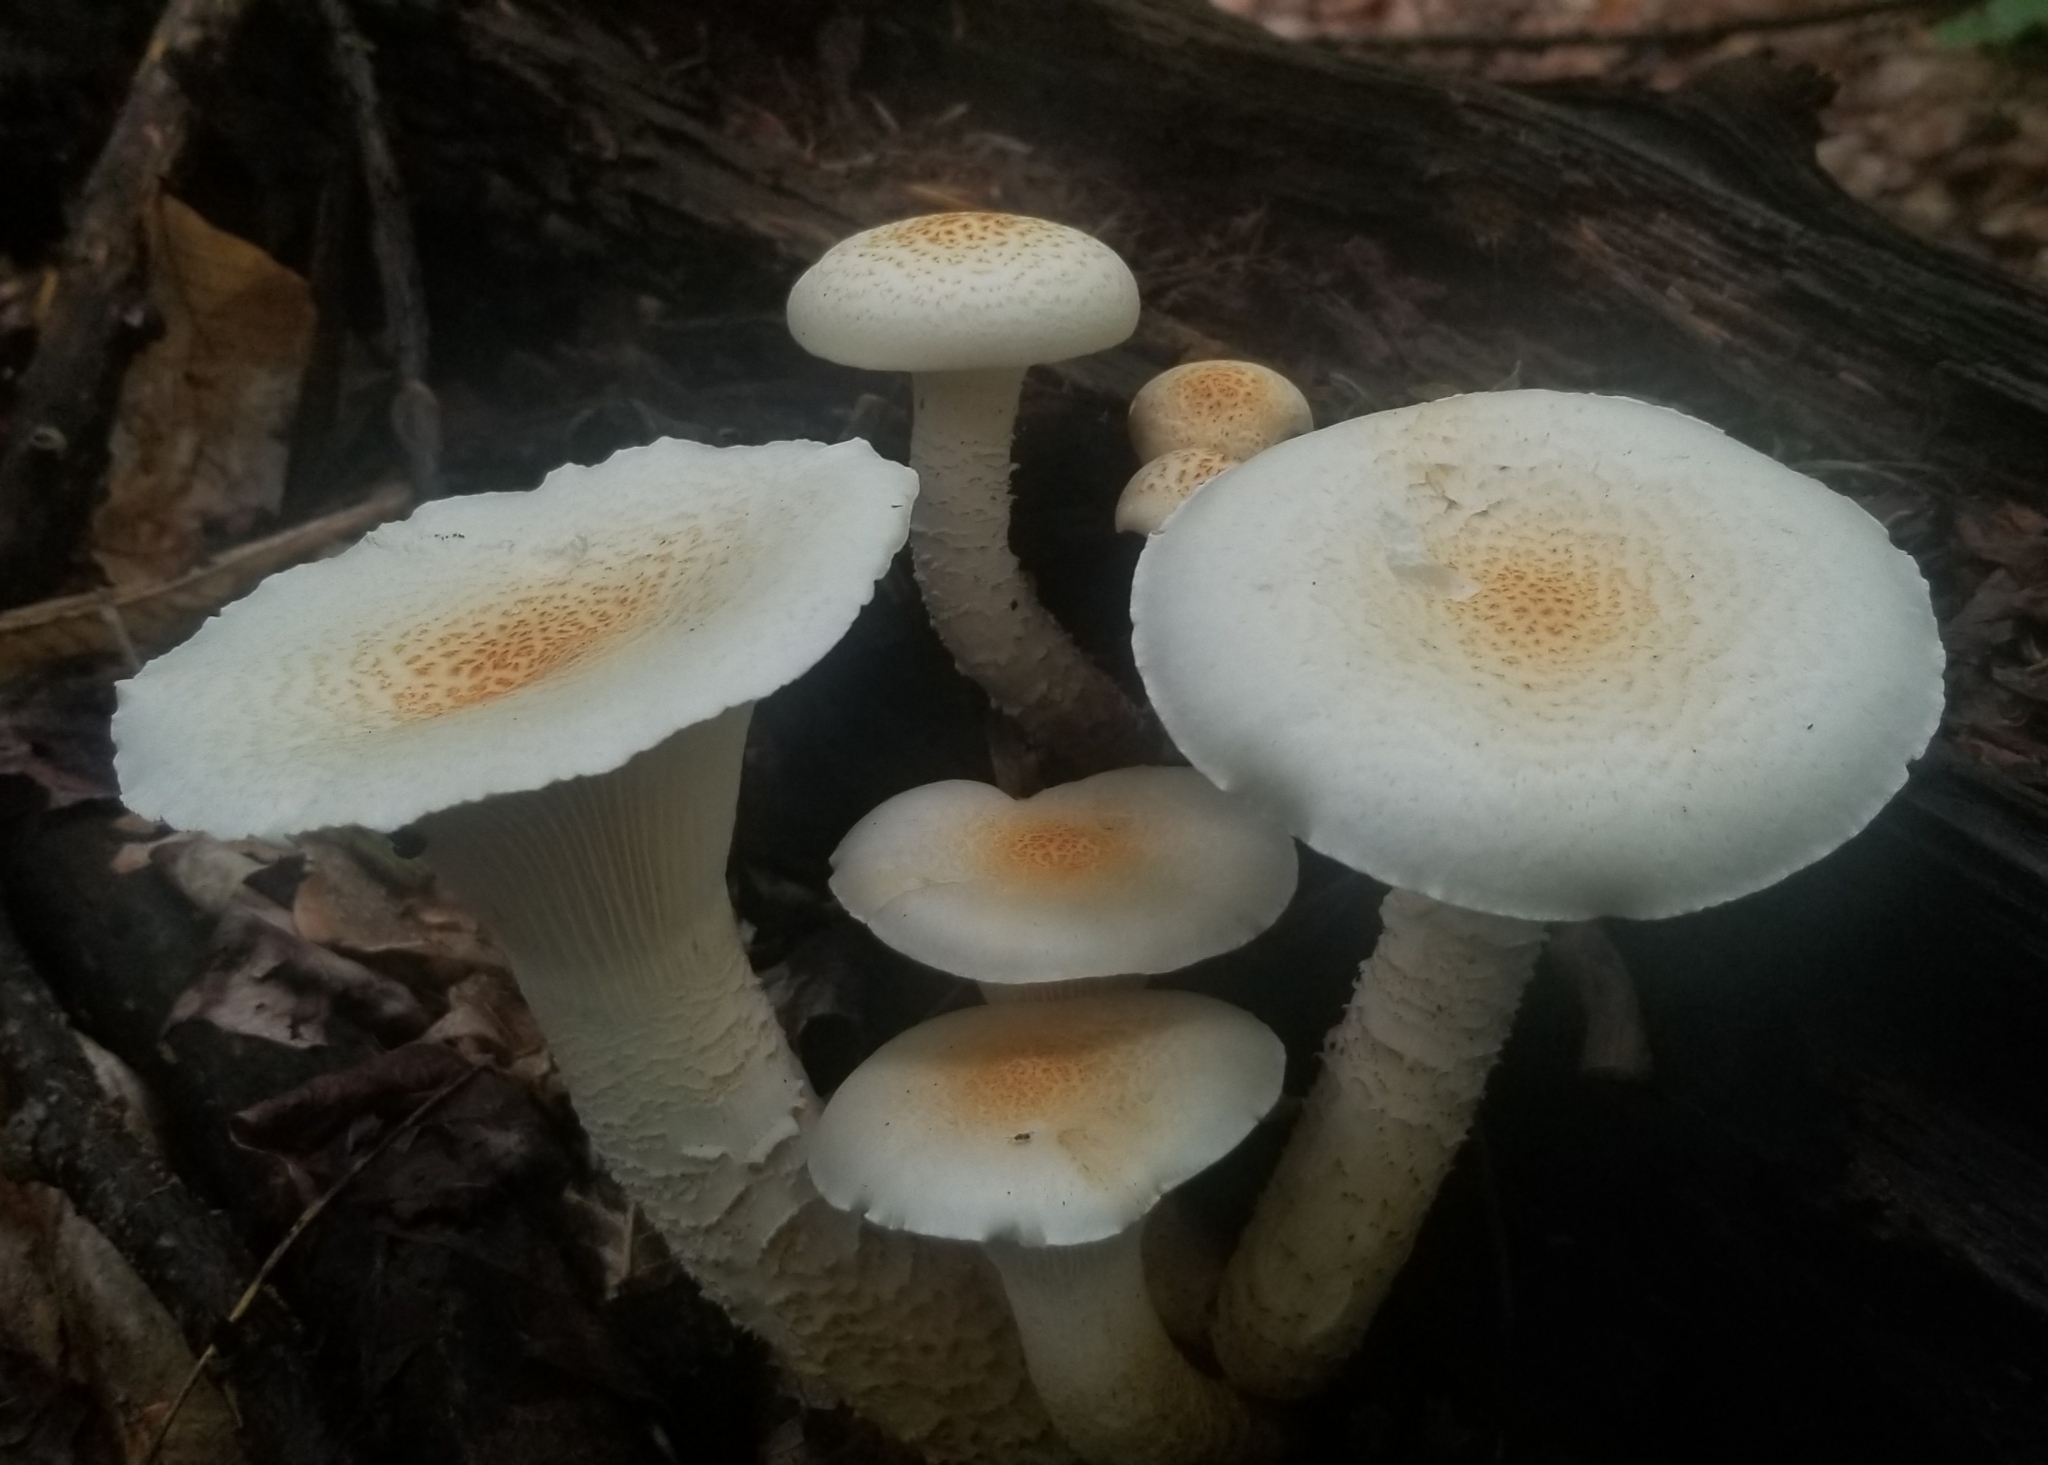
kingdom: Fungi
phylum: Basidiomycota
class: Agaricomycetes
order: Gloeophyllales
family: Gloeophyllaceae
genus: Neolentinus
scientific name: Neolentinus lepideus
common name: Scaly sawgill
